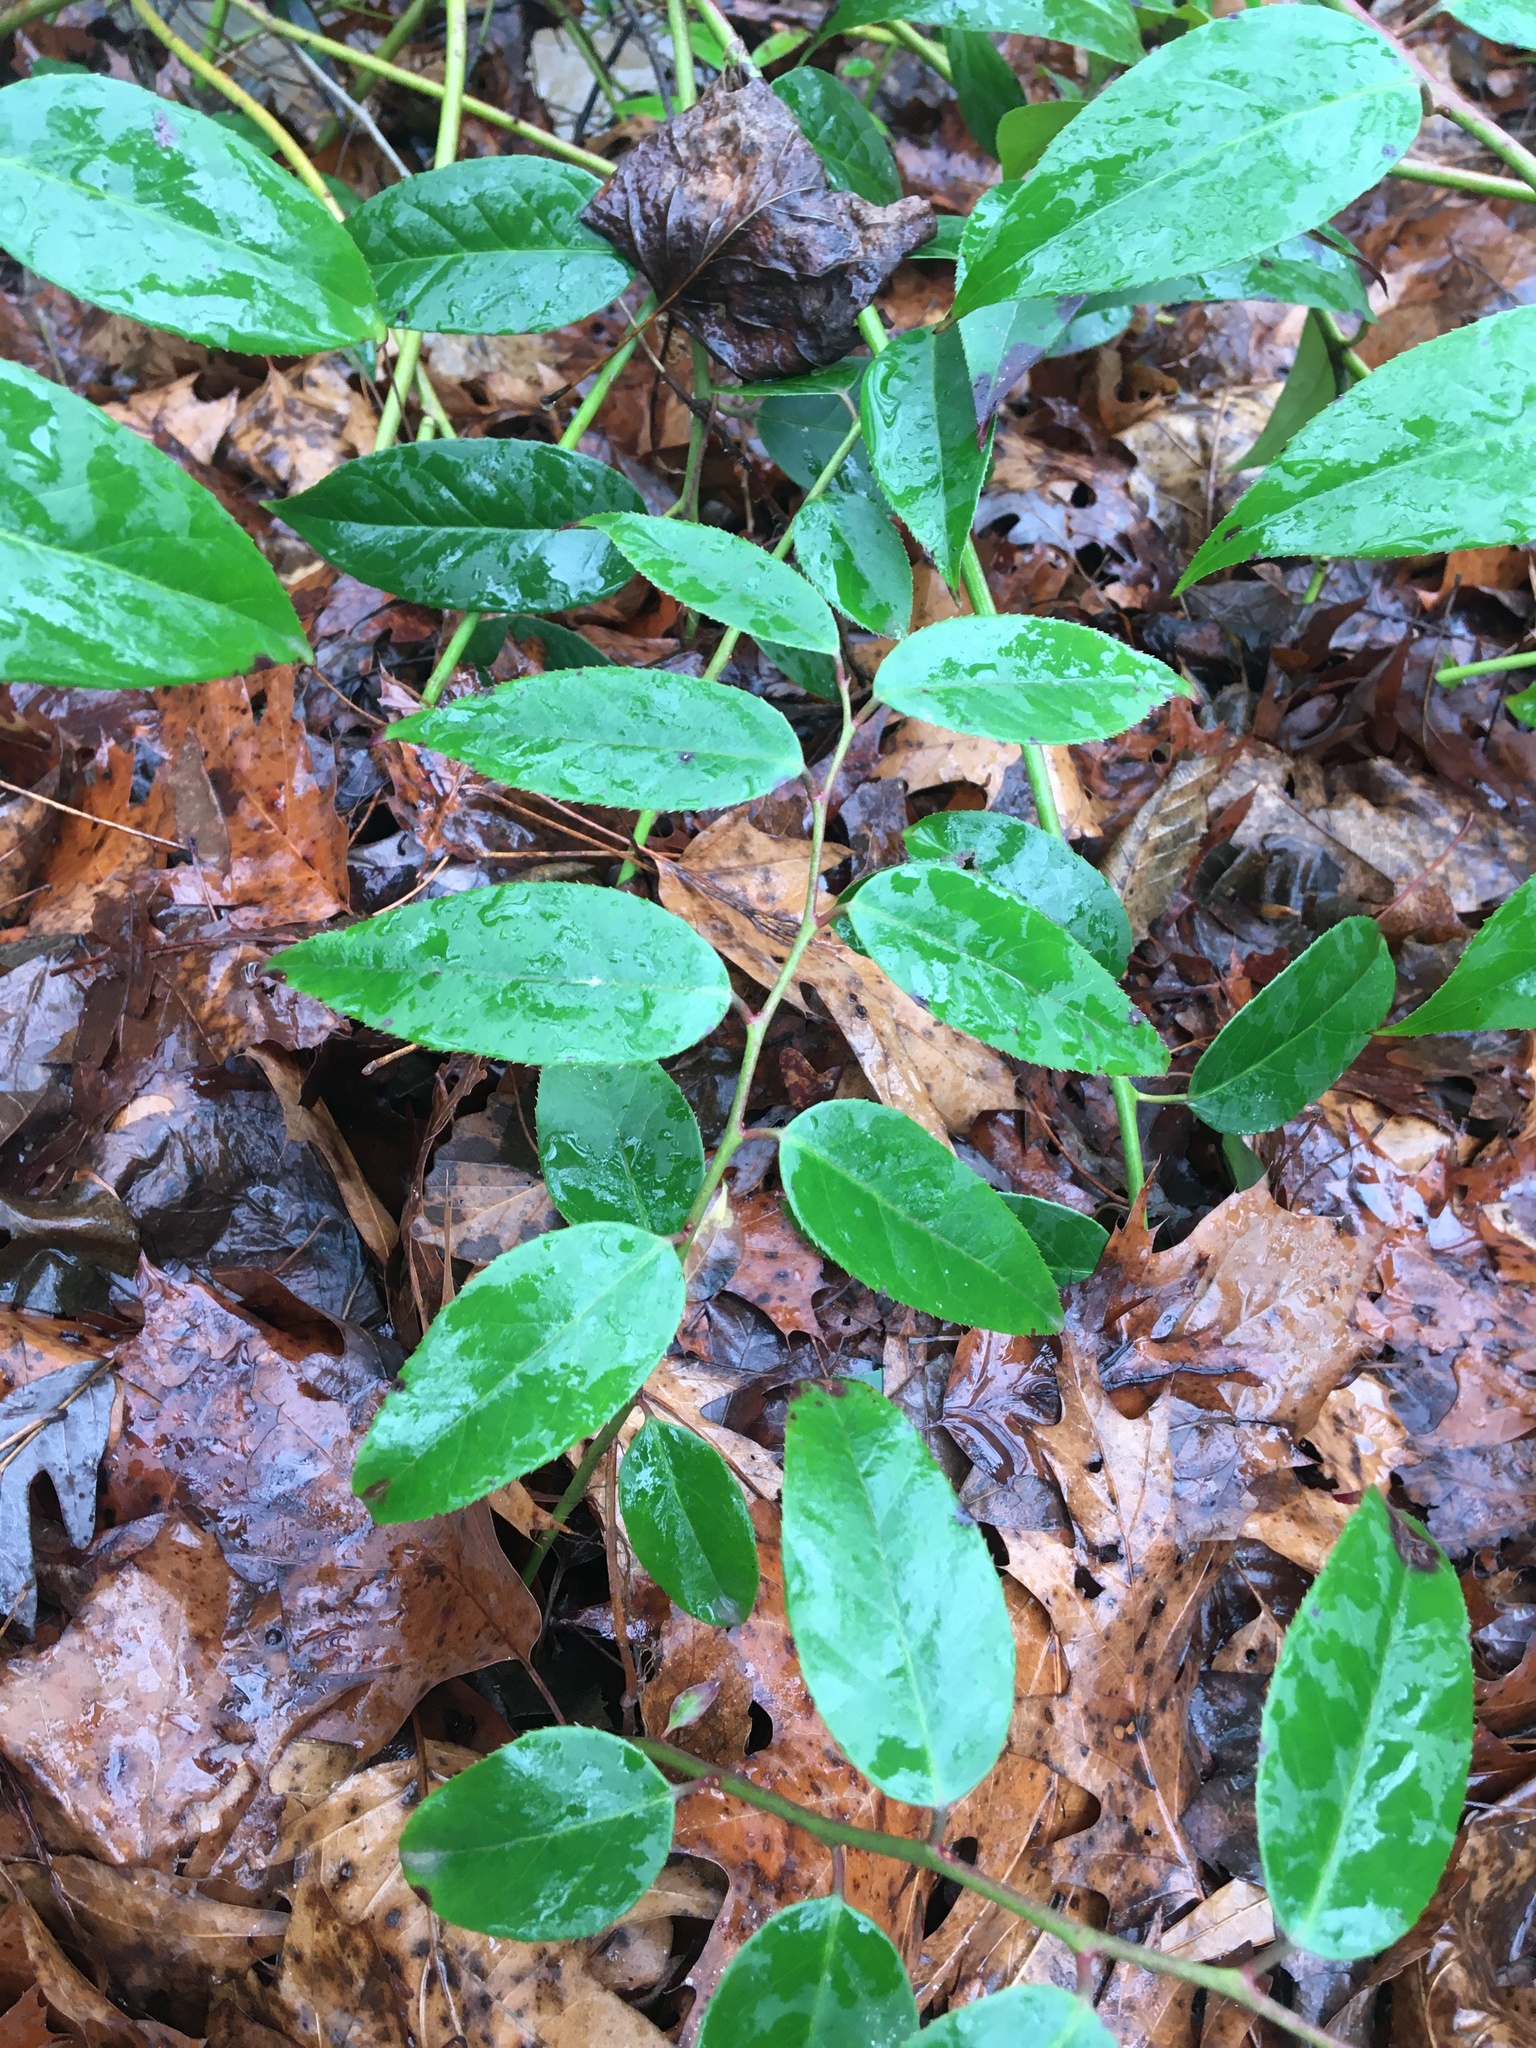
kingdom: Plantae
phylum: Tracheophyta
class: Magnoliopsida
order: Ericales
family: Ericaceae
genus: Leucothoe
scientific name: Leucothoe fontanesiana
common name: Fetterbush
